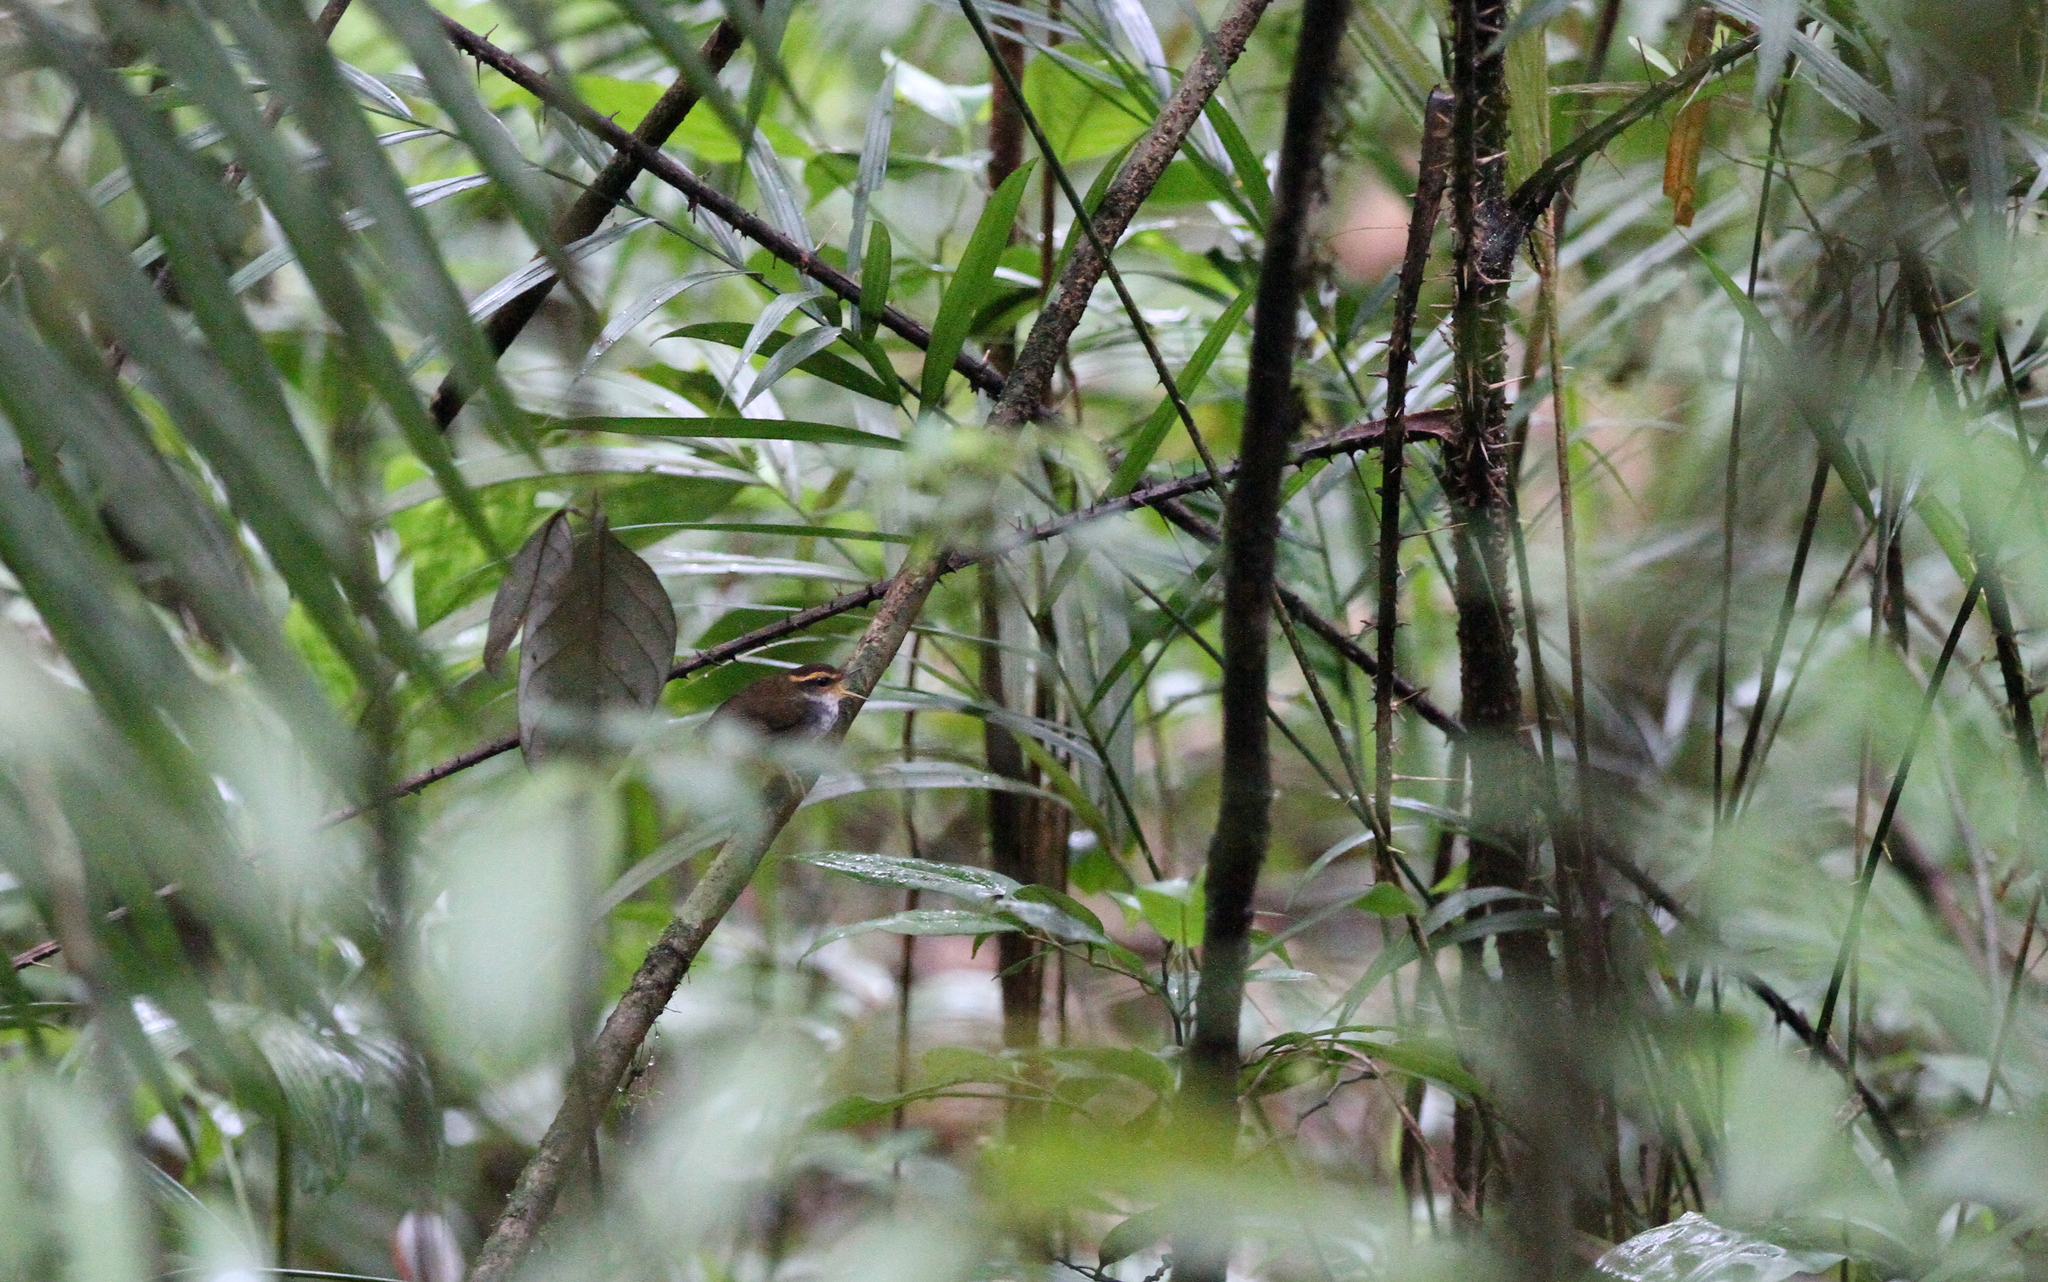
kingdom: Animalia
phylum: Chordata
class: Aves
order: Passeriformes
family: Cettiidae
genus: Urosphena
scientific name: Urosphena whiteheadi
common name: Bornean stubtail
